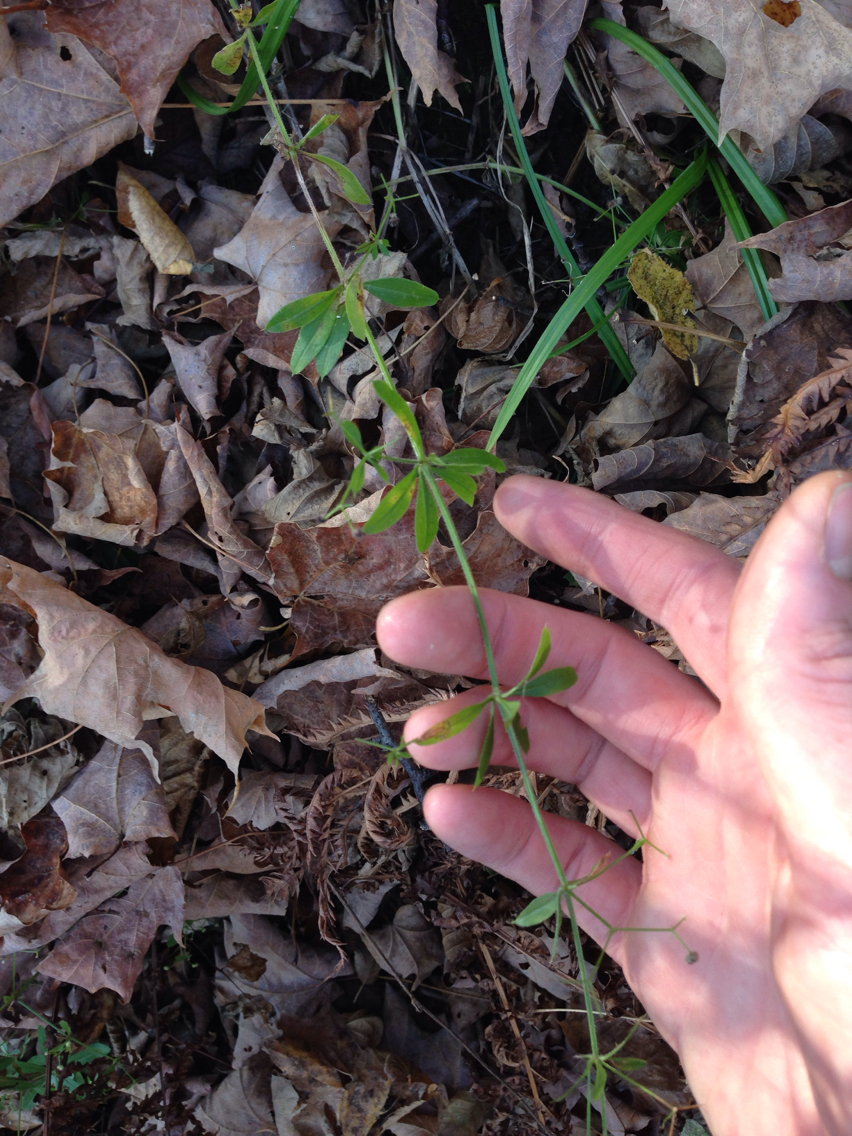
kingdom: Plantae
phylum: Tracheophyta
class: Magnoliopsida
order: Gentianales
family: Rubiaceae
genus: Galium
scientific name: Galium triflorum
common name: Fragrant bedstraw
